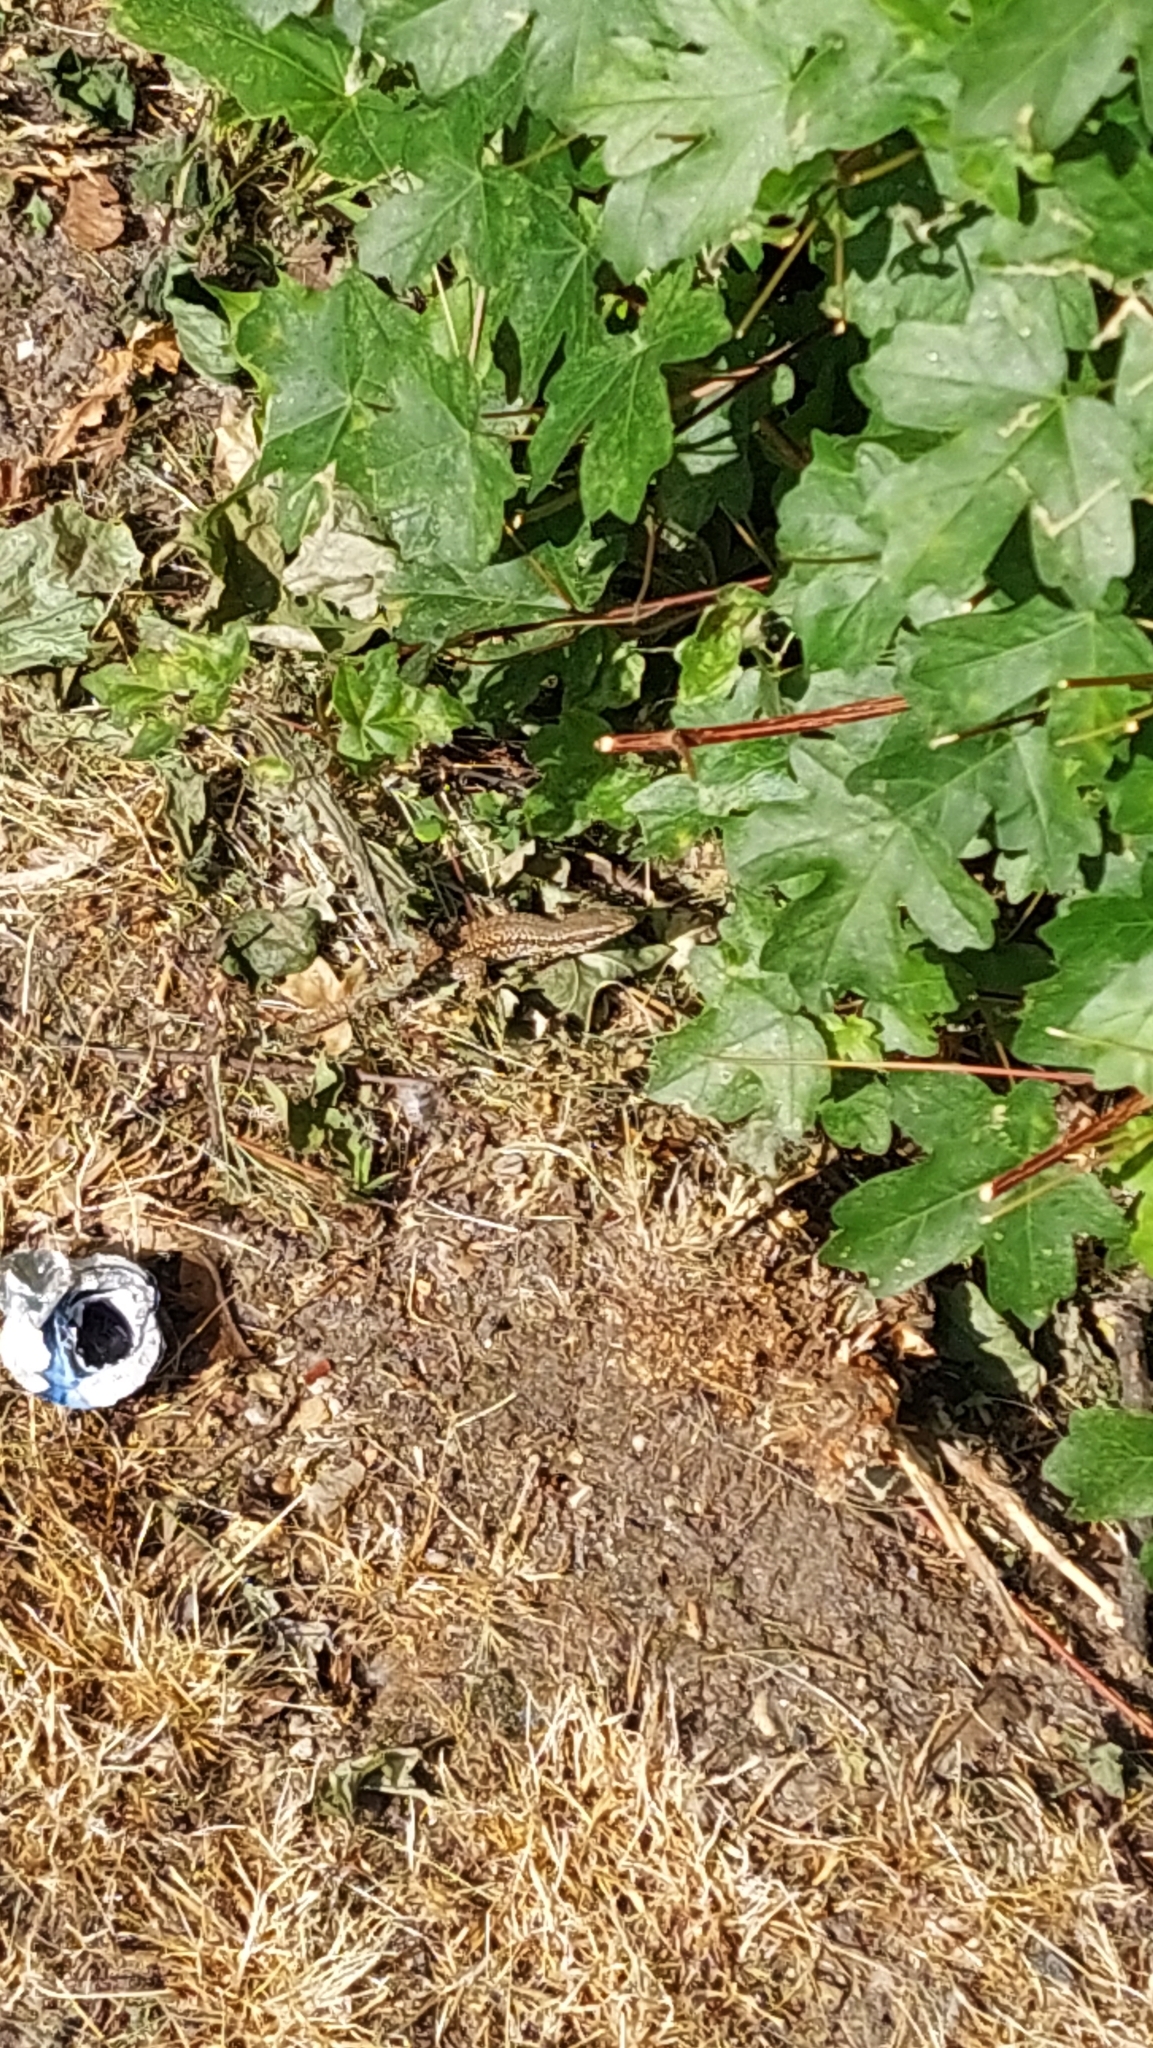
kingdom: Animalia
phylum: Chordata
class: Squamata
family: Lacertidae
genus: Podarcis
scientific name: Podarcis muralis
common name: Common wall lizard
